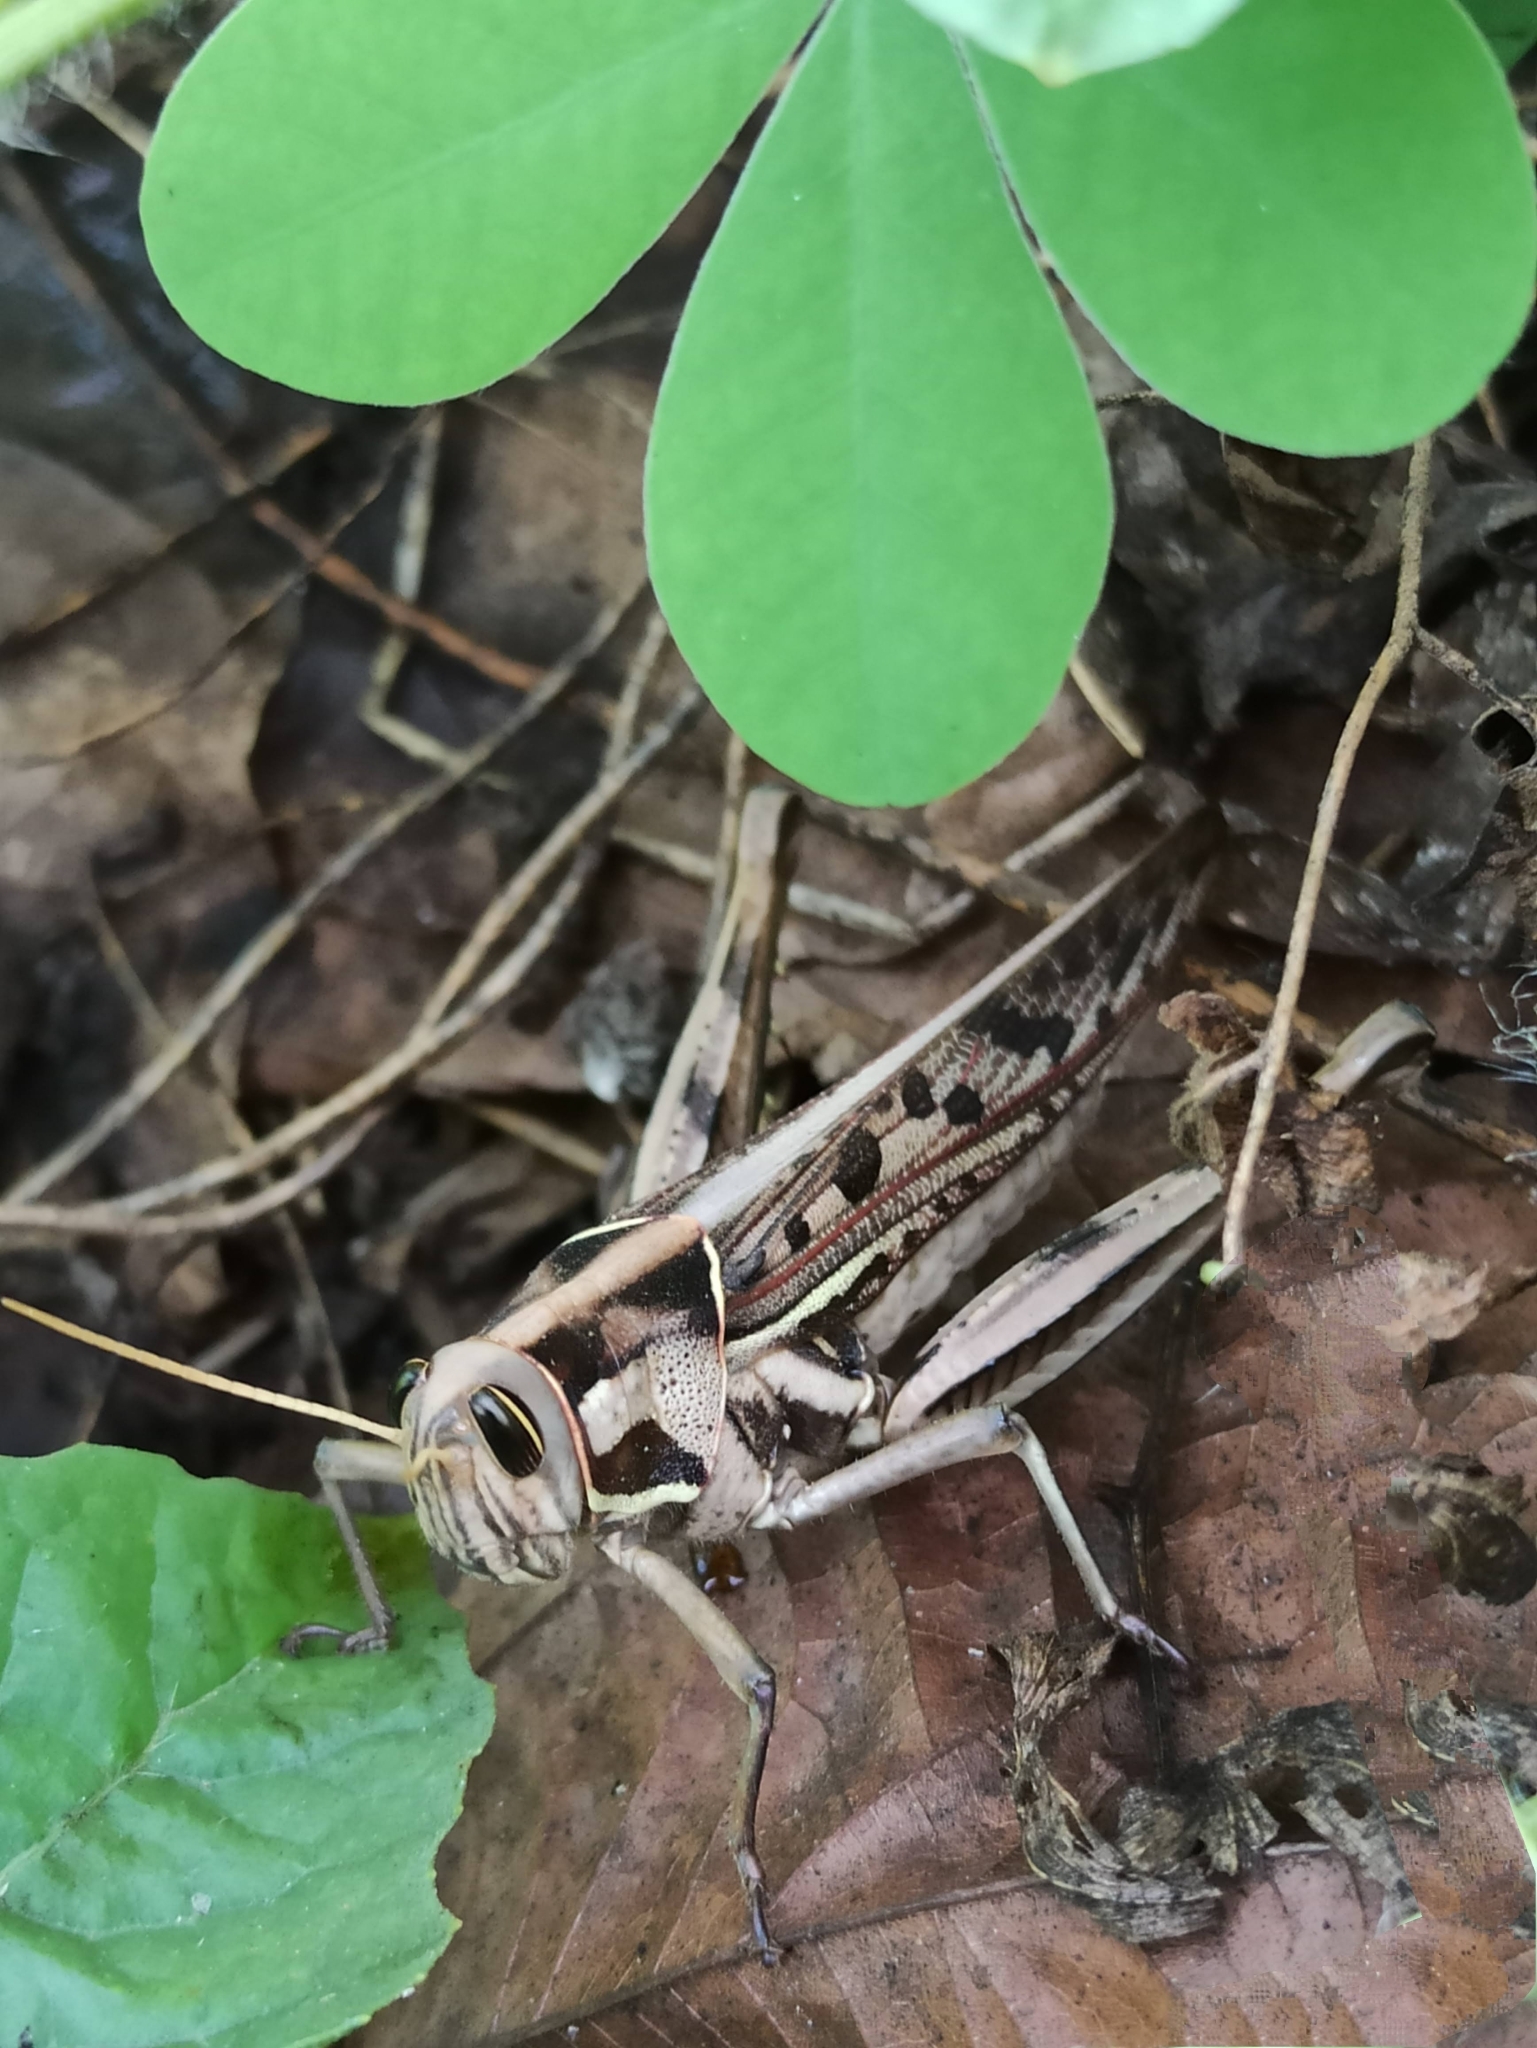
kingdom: Animalia
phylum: Arthropoda
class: Insecta
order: Orthoptera
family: Acrididae
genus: Cyrtacanthacris
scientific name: Cyrtacanthacris tatarica
